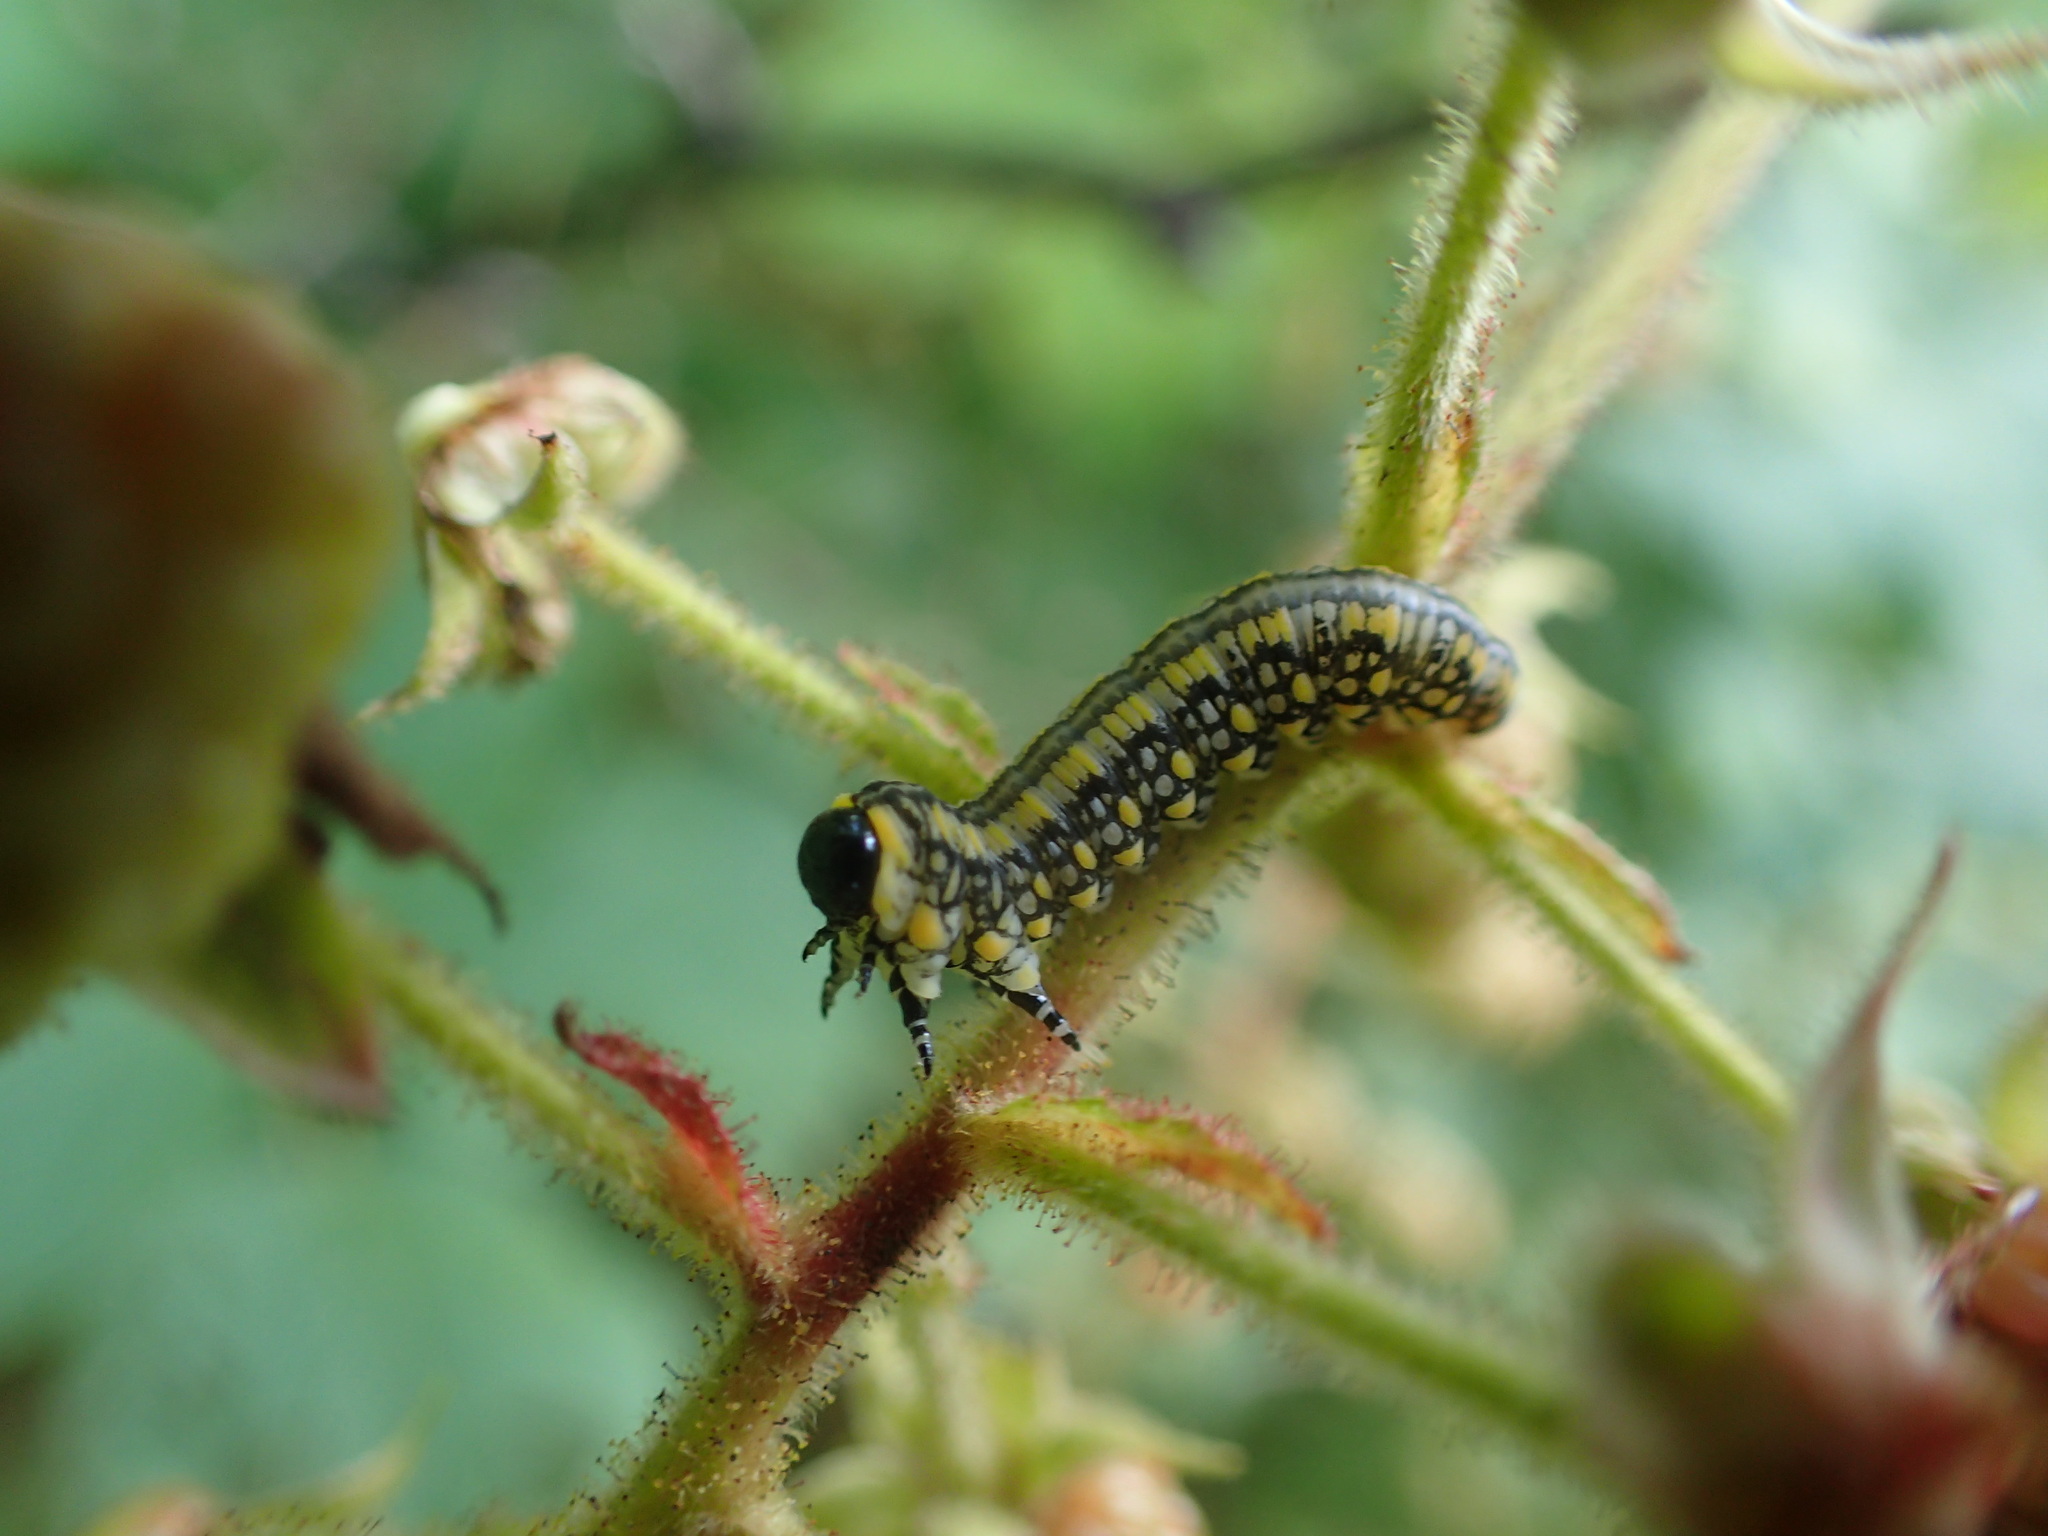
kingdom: Animalia
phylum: Arthropoda
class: Insecta
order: Hymenoptera
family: Diprionidae
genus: Diprion
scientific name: Diprion similis
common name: Pine sawfly
